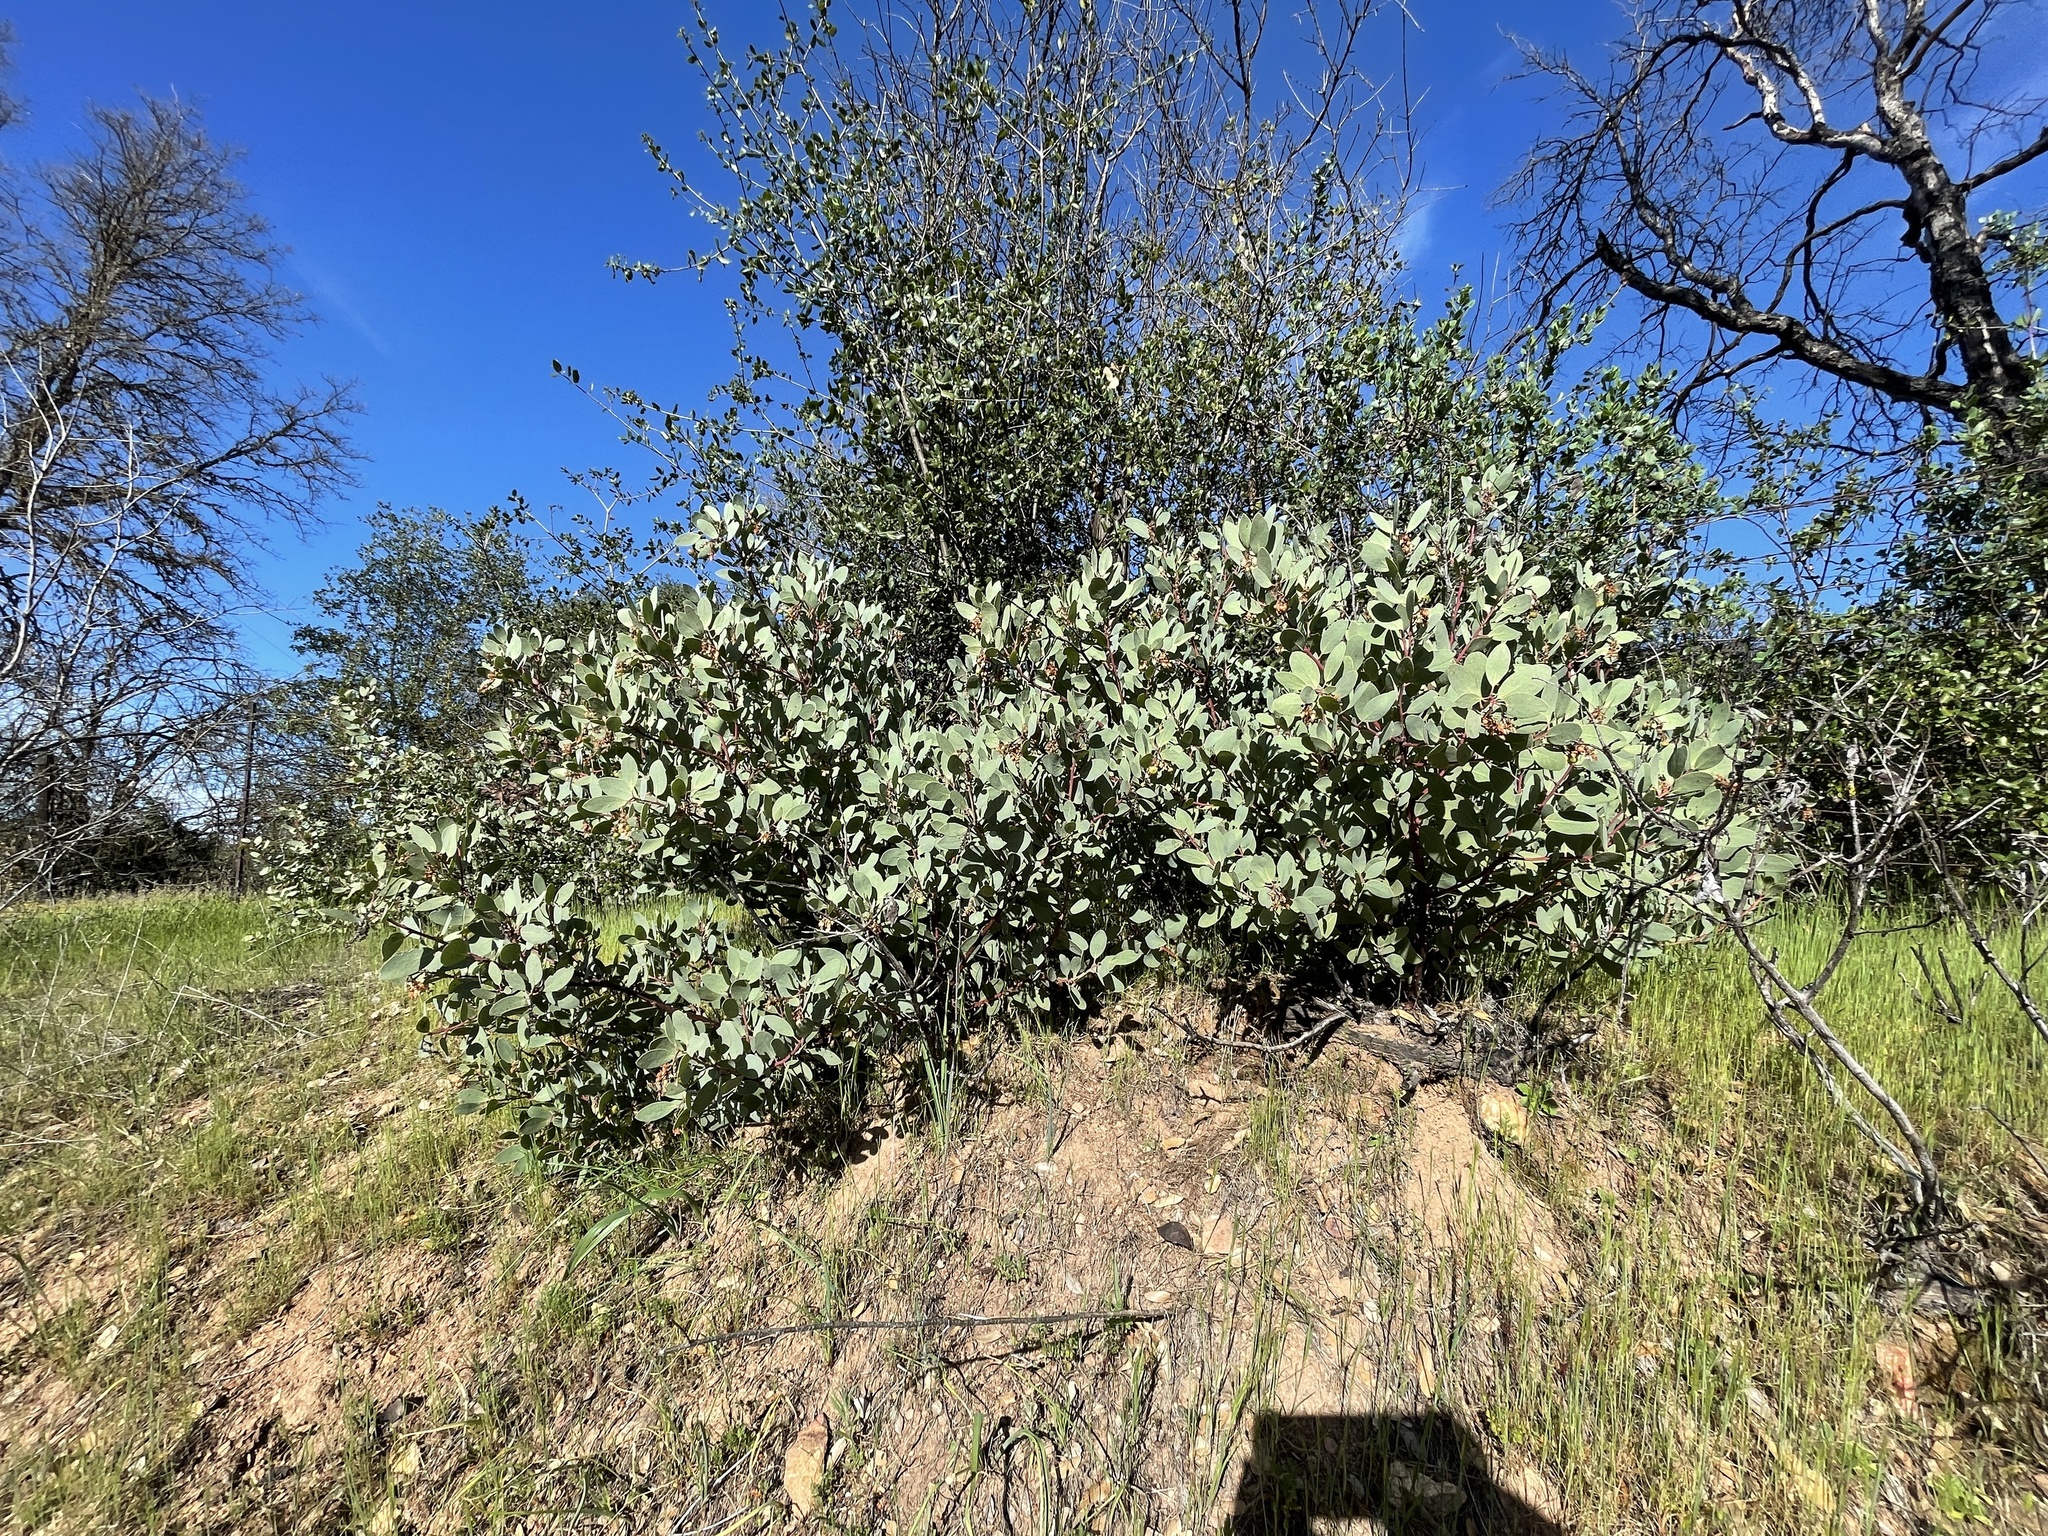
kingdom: Plantae
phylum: Tracheophyta
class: Magnoliopsida
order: Ericales
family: Ericaceae
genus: Arctostaphylos
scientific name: Arctostaphylos mewukka
